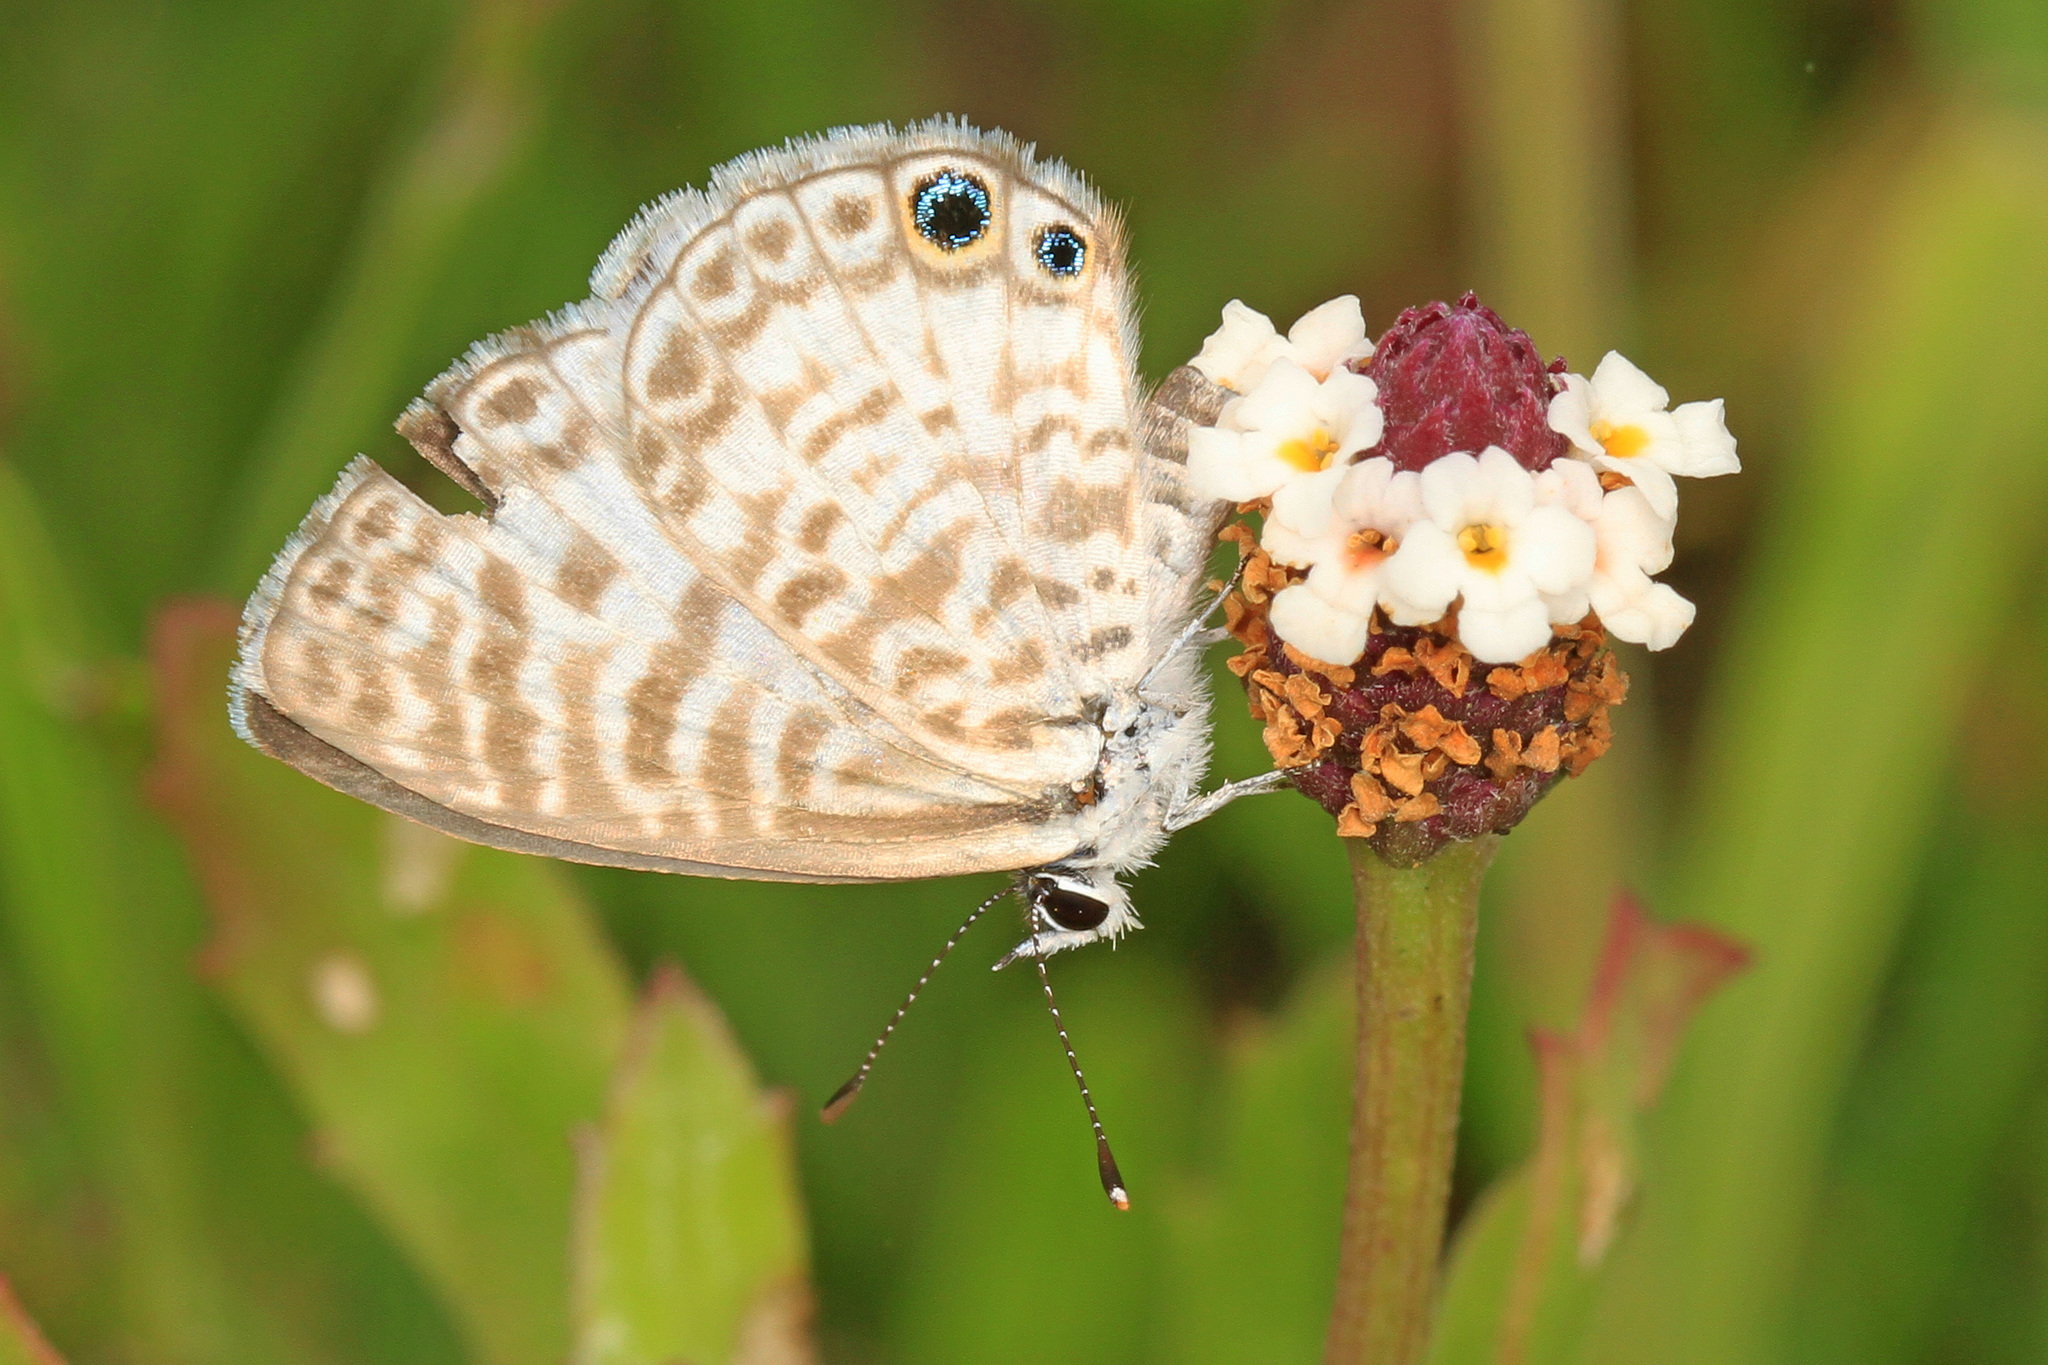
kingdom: Animalia
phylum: Arthropoda
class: Insecta
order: Lepidoptera
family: Lycaenidae
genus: Leptotes
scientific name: Leptotes cassius
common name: Cassius blue
